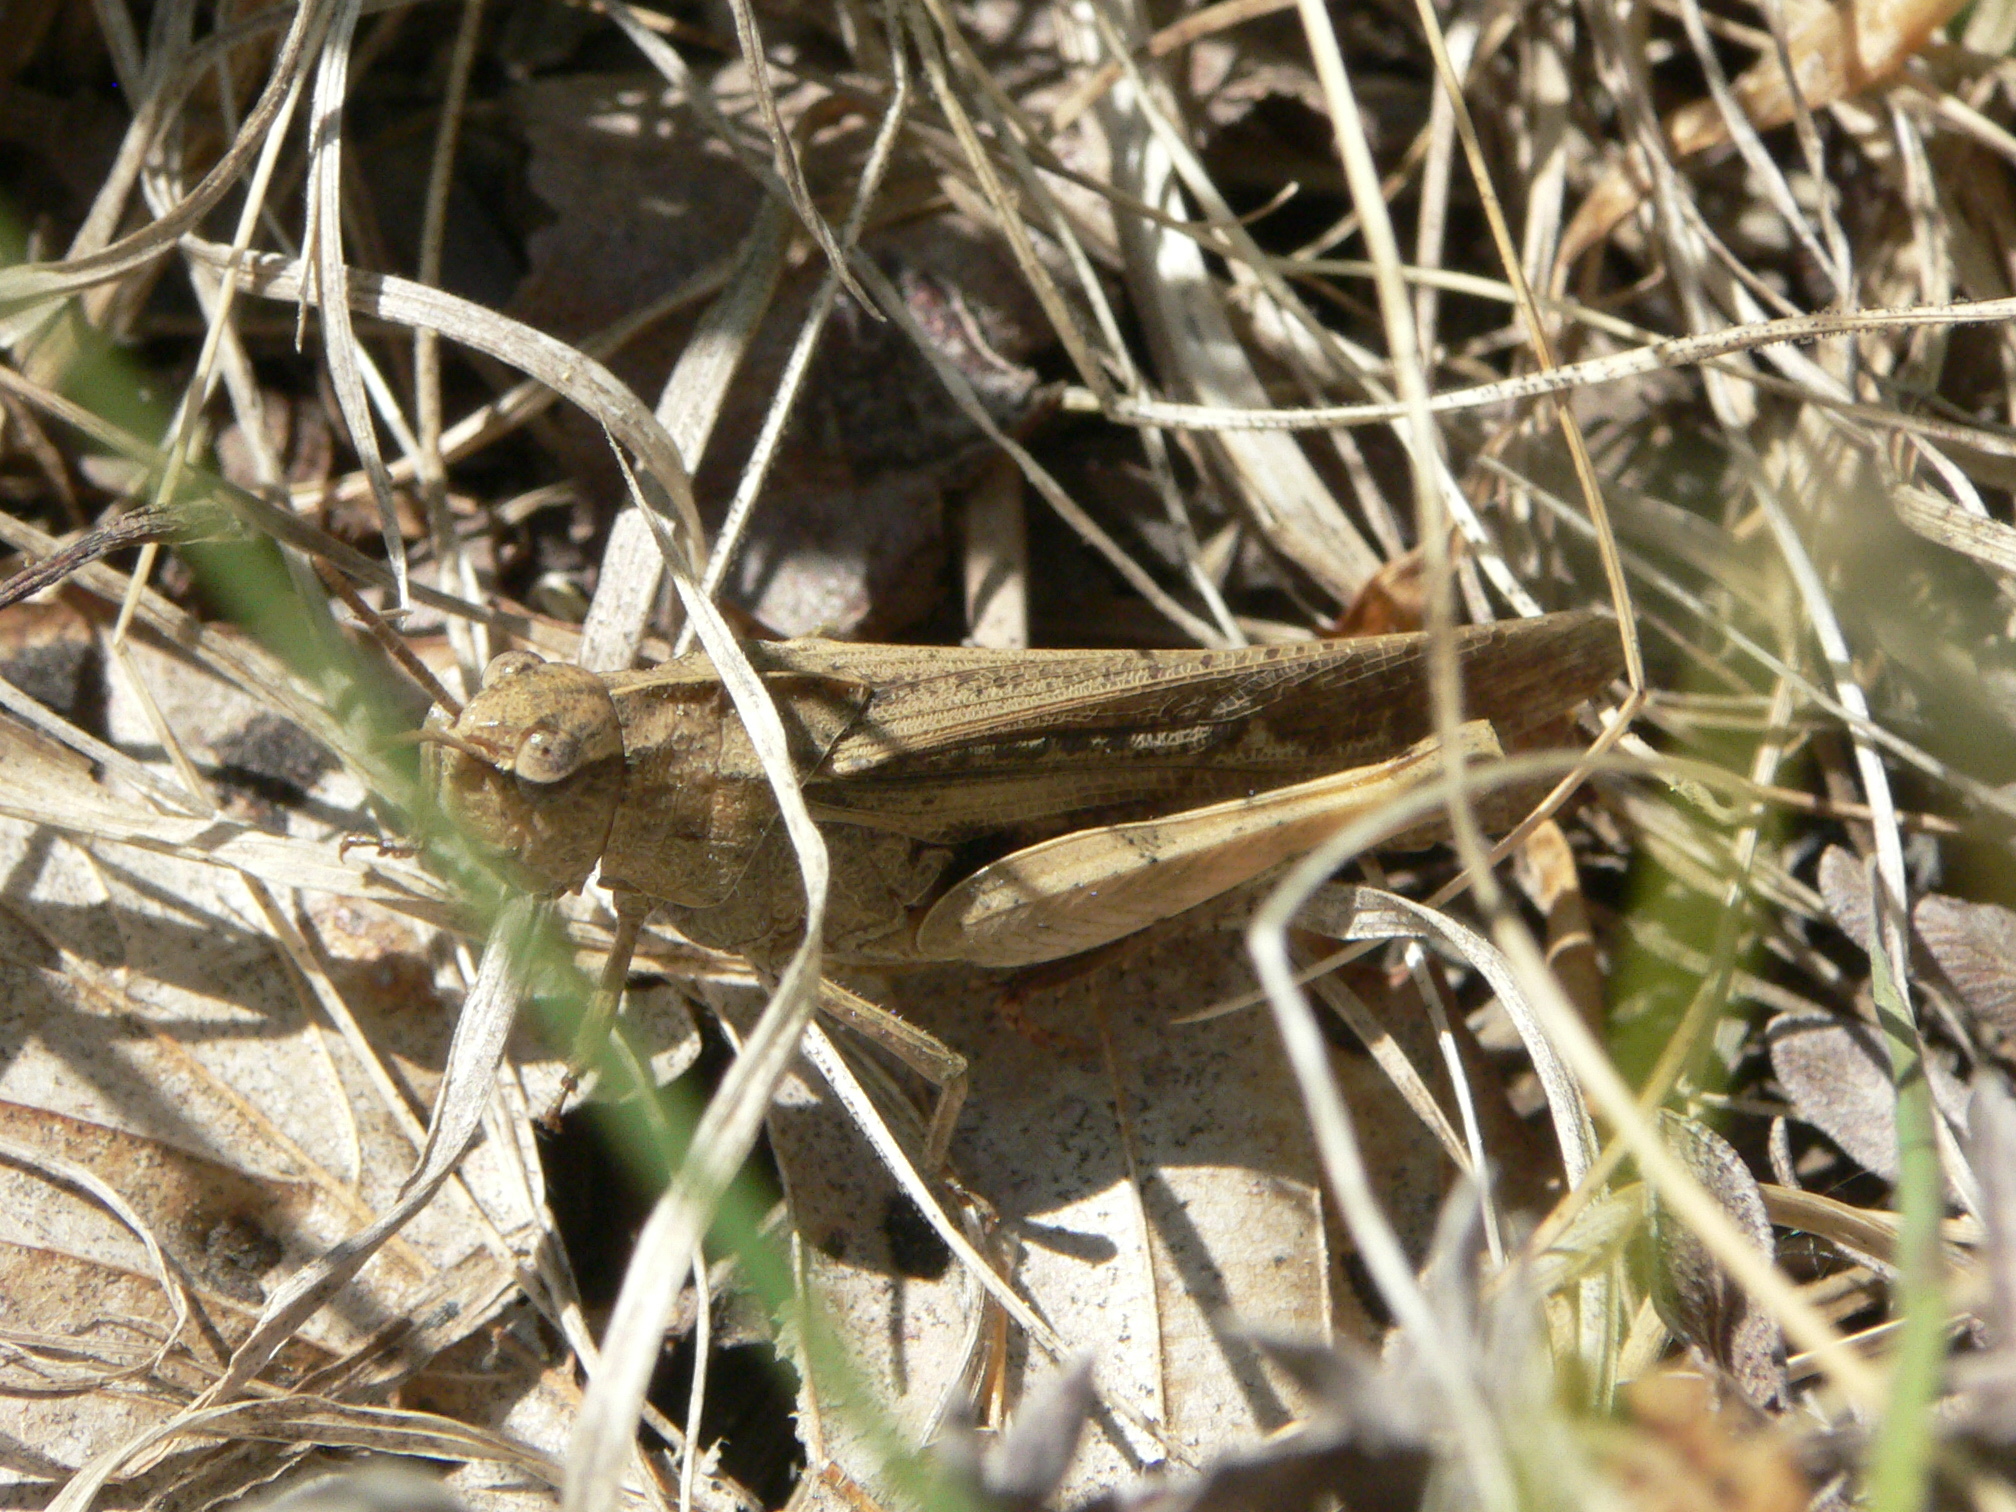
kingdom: Animalia
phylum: Arthropoda
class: Insecta
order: Orthoptera
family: Acrididae
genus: Chortophaga
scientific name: Chortophaga viridifasciata
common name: Green-striped grasshopper
